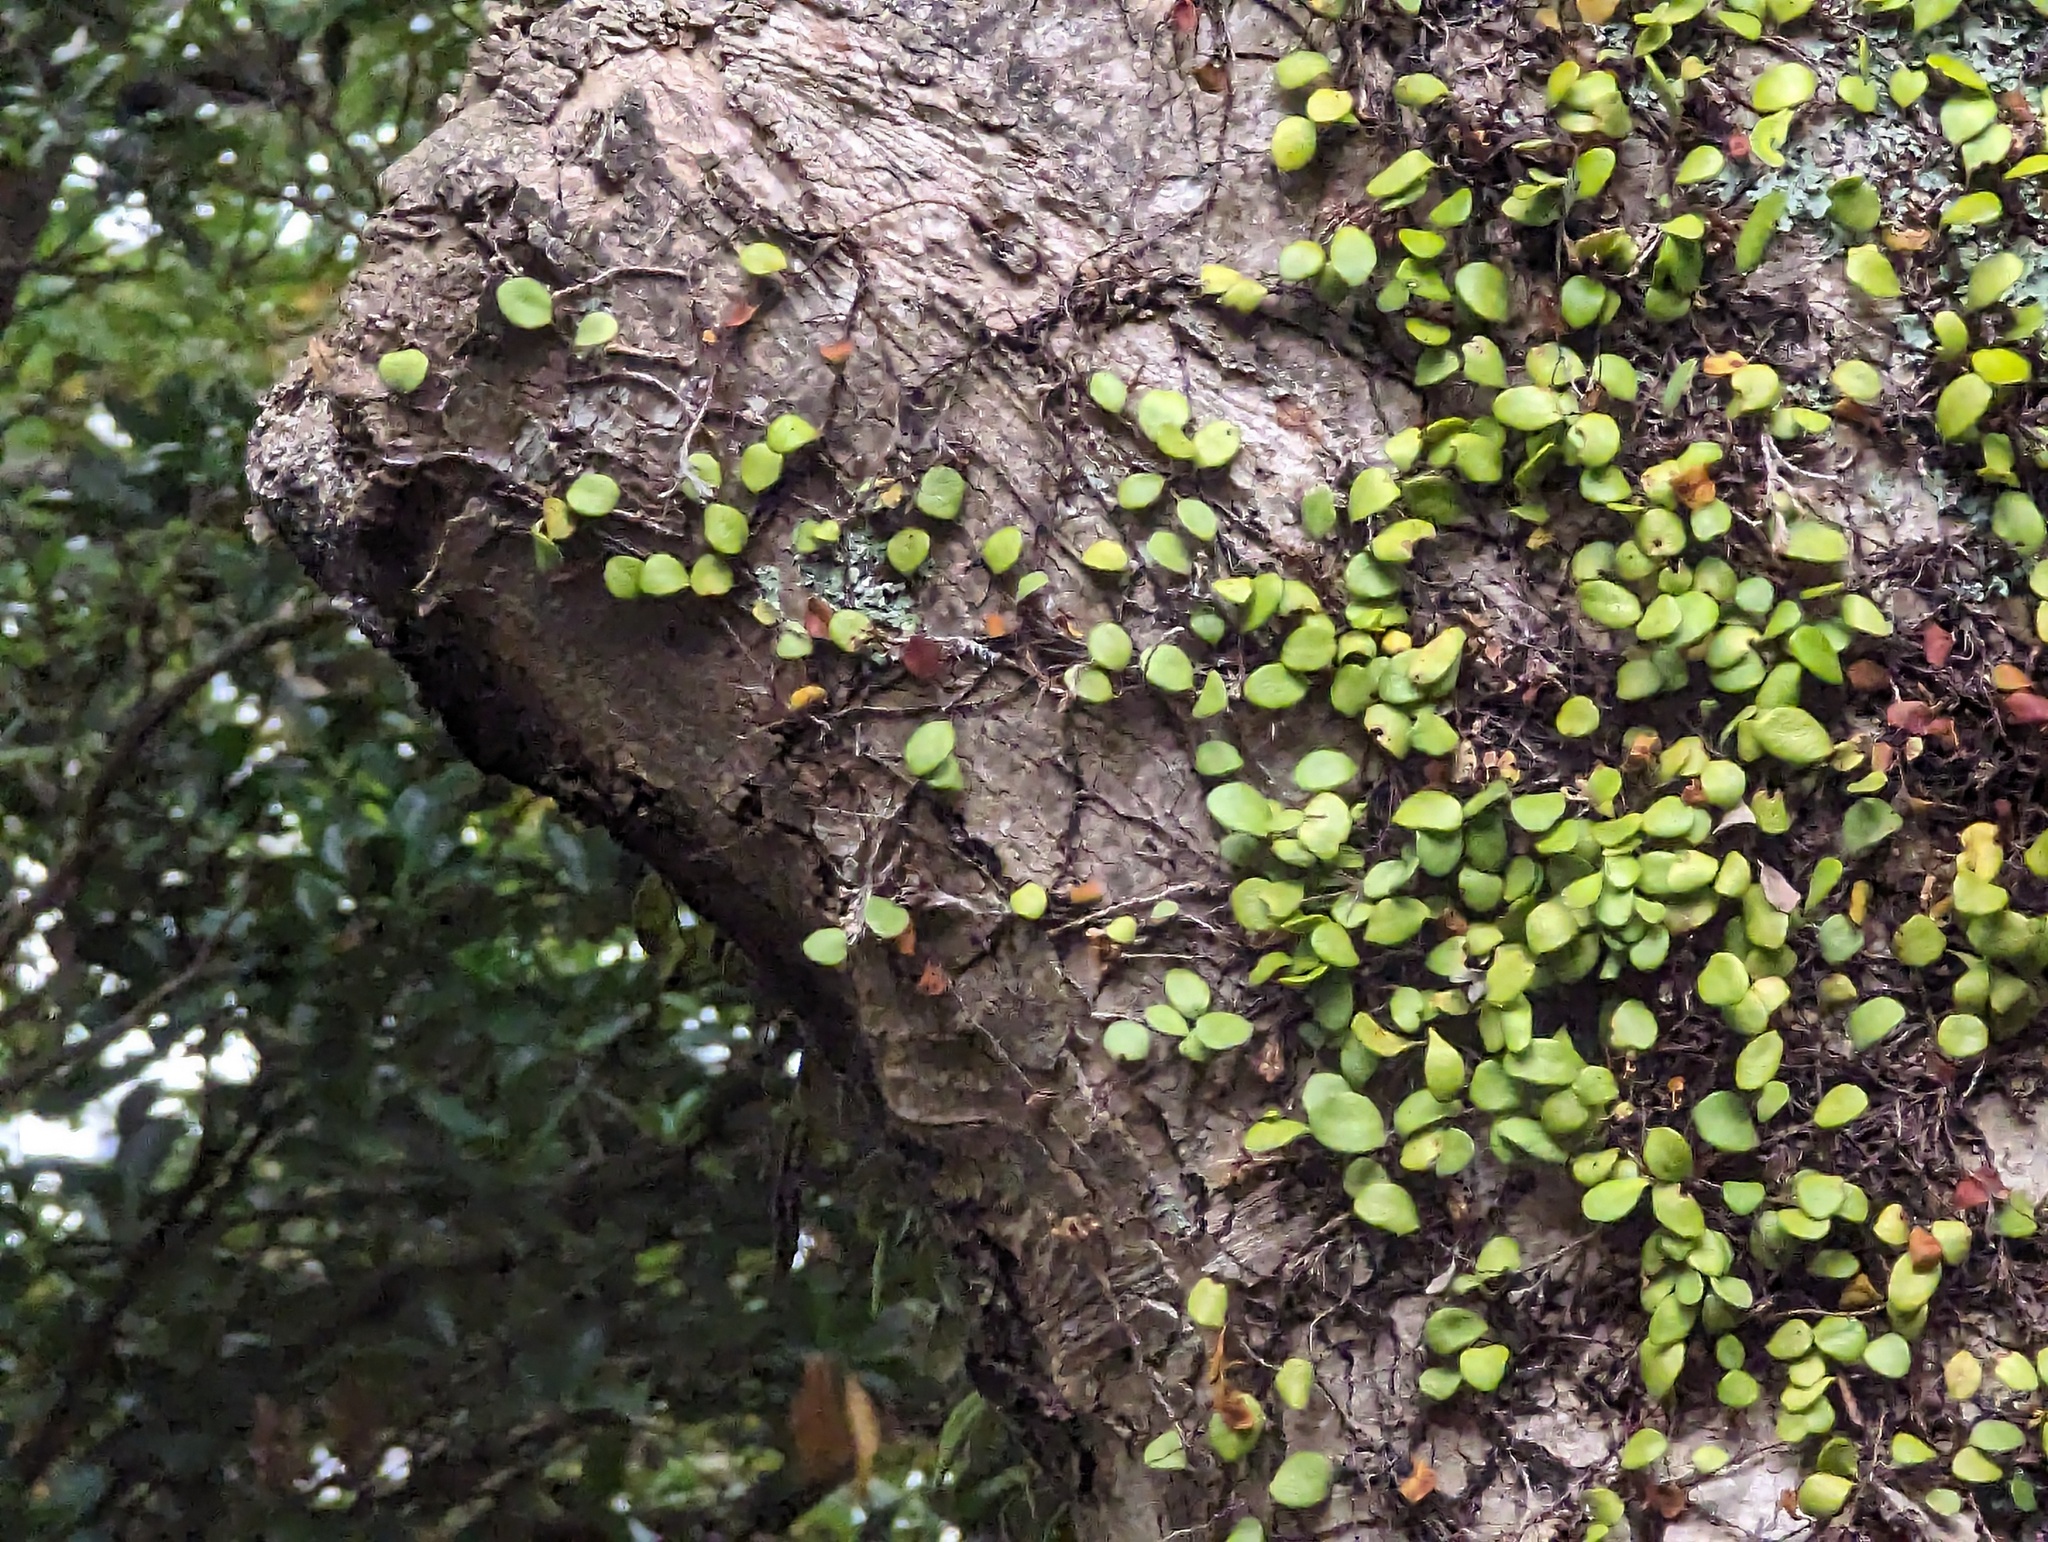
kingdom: Plantae
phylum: Tracheophyta
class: Polypodiopsida
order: Polypodiales
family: Polypodiaceae
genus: Pyrrosia
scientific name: Pyrrosia eleagnifolia
